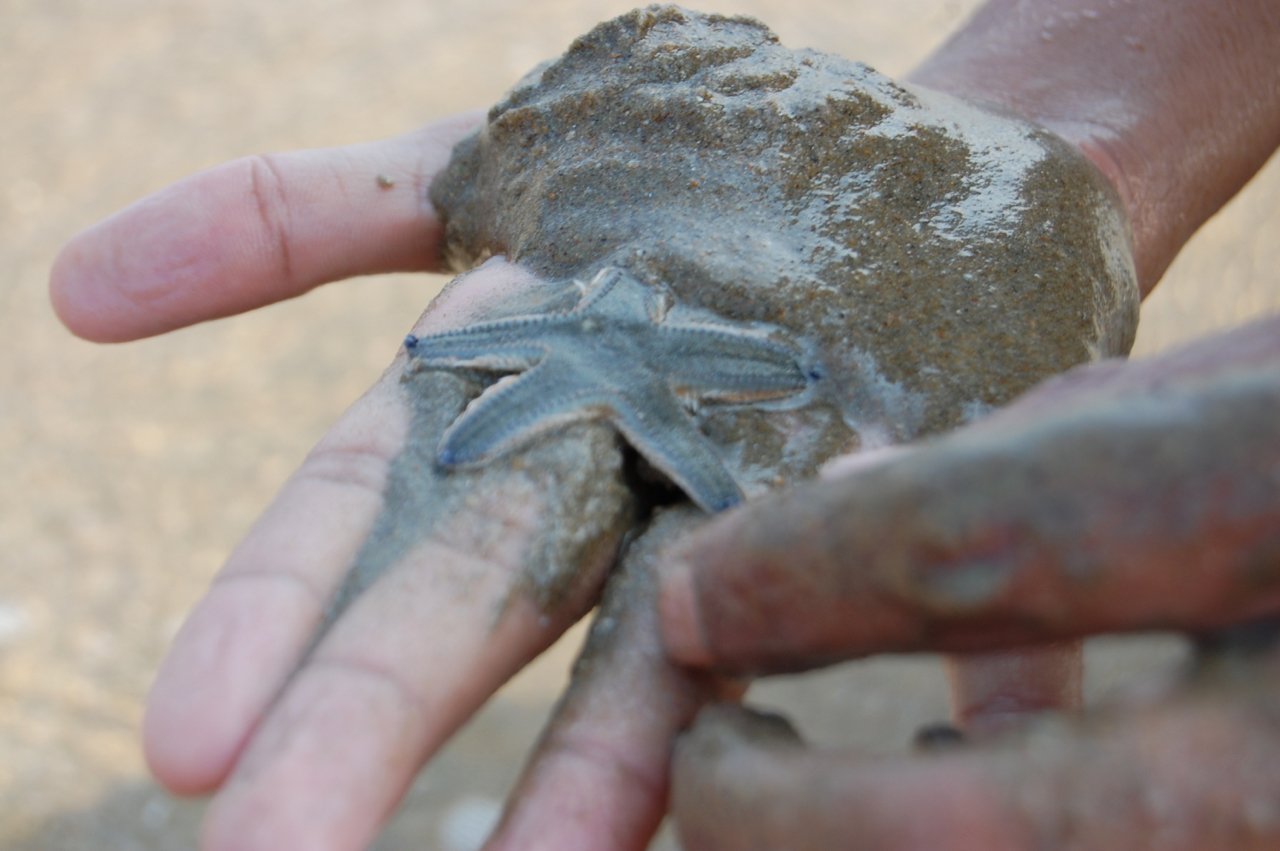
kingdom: Animalia
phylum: Echinodermata
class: Asteroidea
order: Paxillosida
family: Astropectinidae
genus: Astropecten
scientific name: Astropecten indicus
